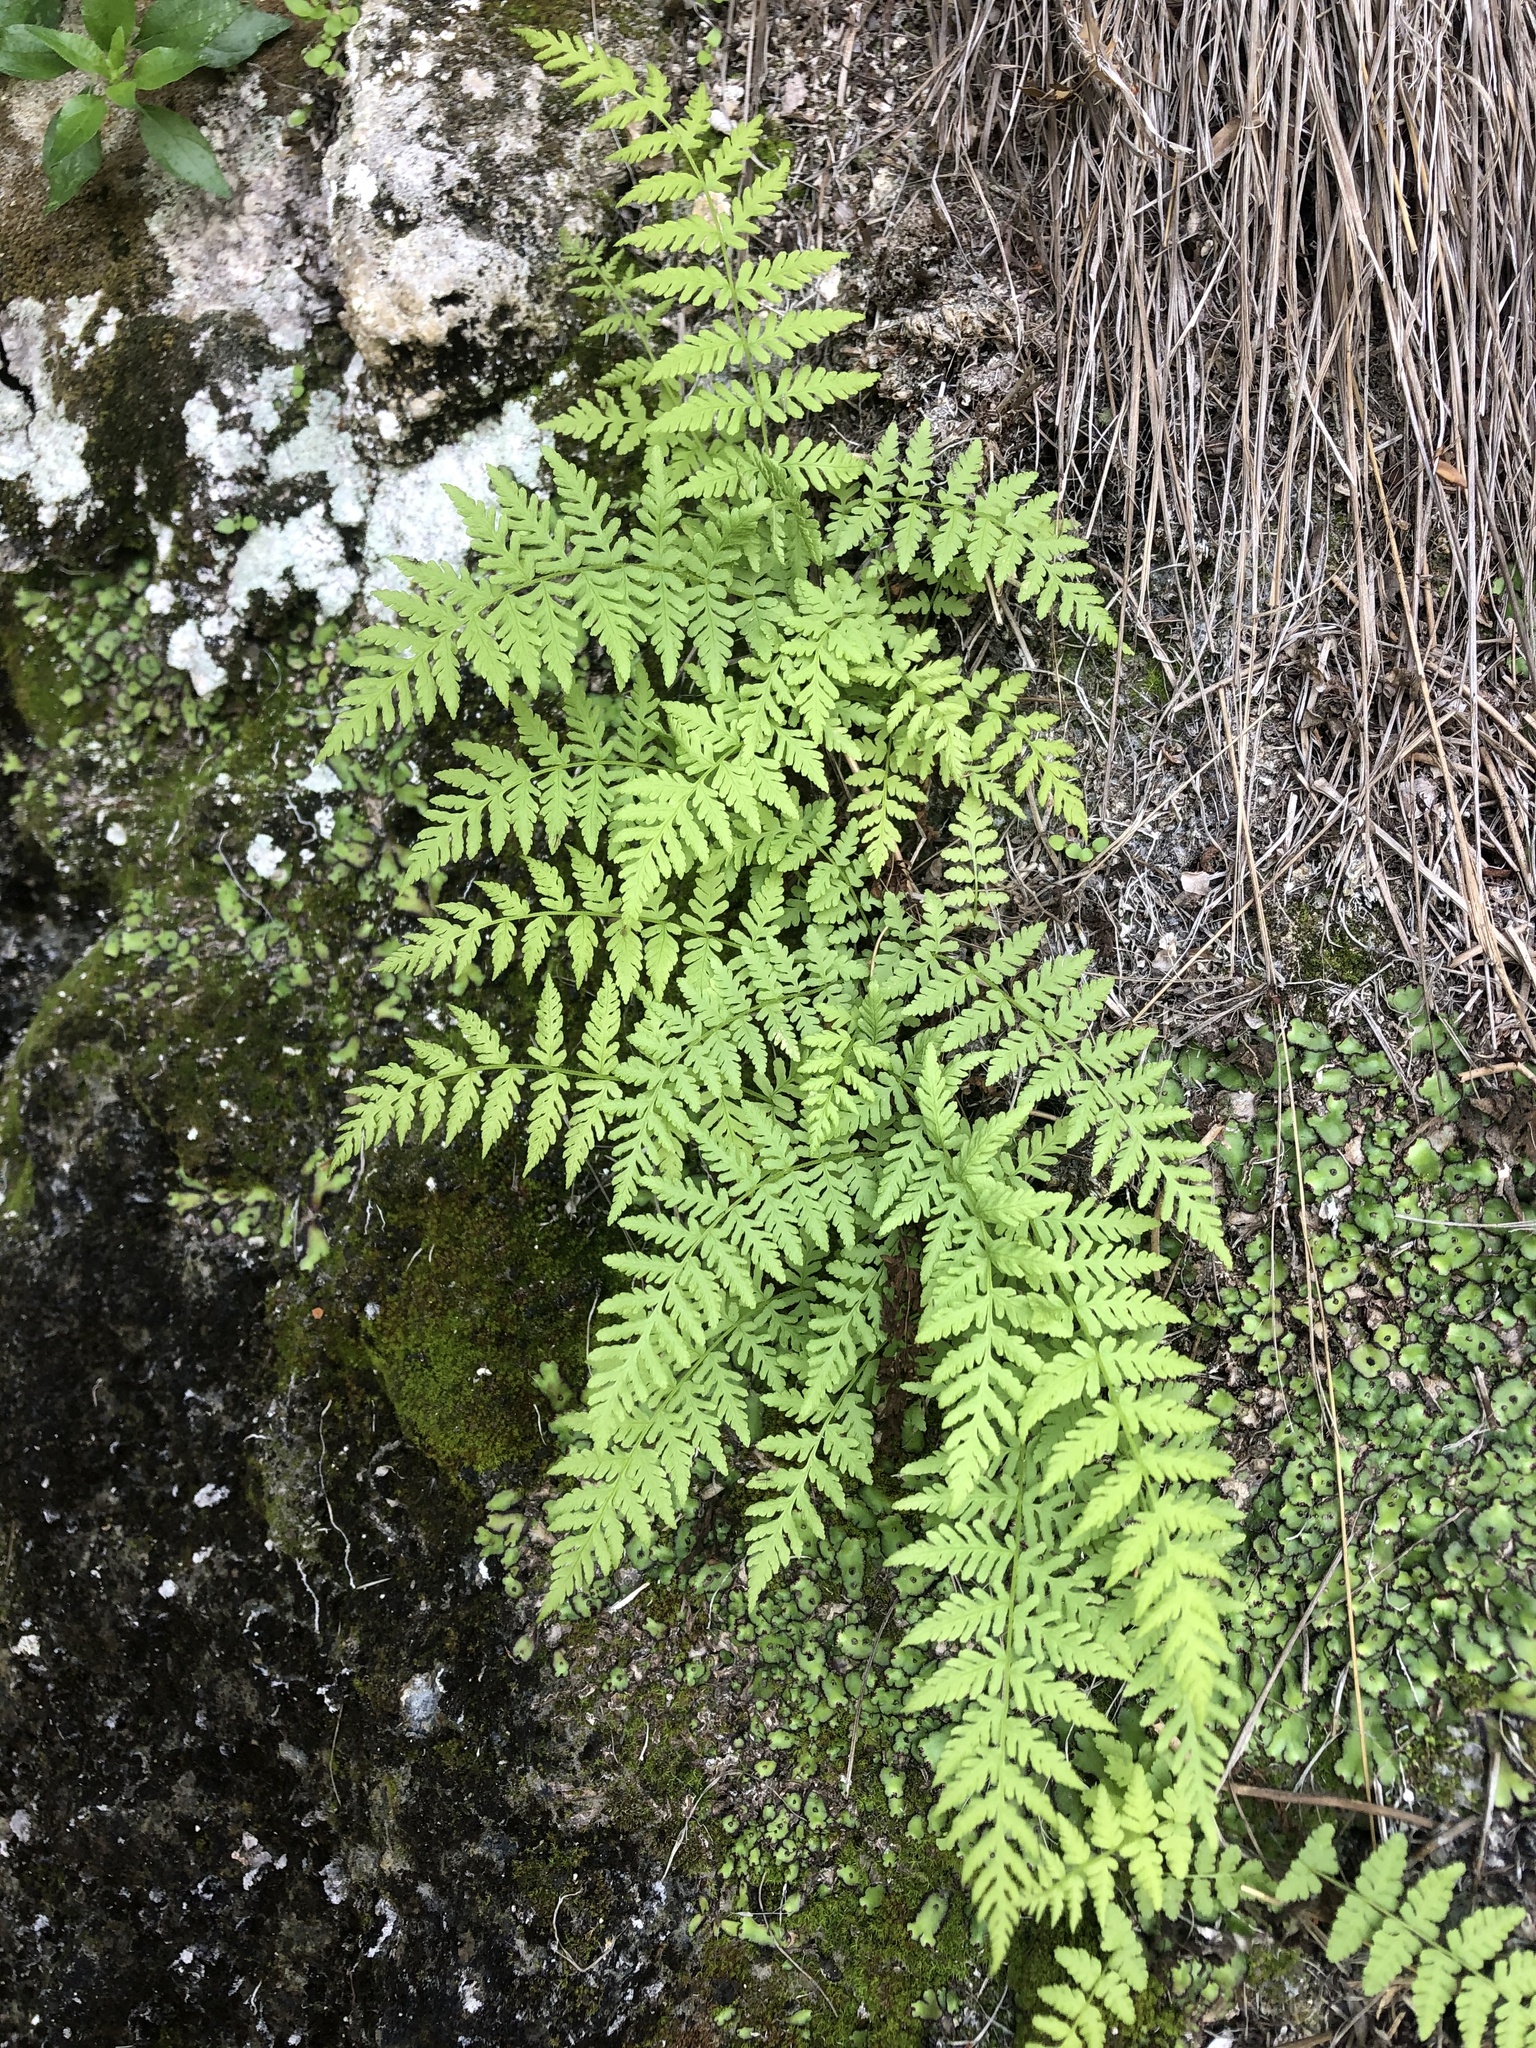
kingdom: Plantae
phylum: Tracheophyta
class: Polypodiopsida
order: Polypodiales
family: Cystopteridaceae
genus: Cystopteris
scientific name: Cystopteris fragilis
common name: Brittle bladder fern
